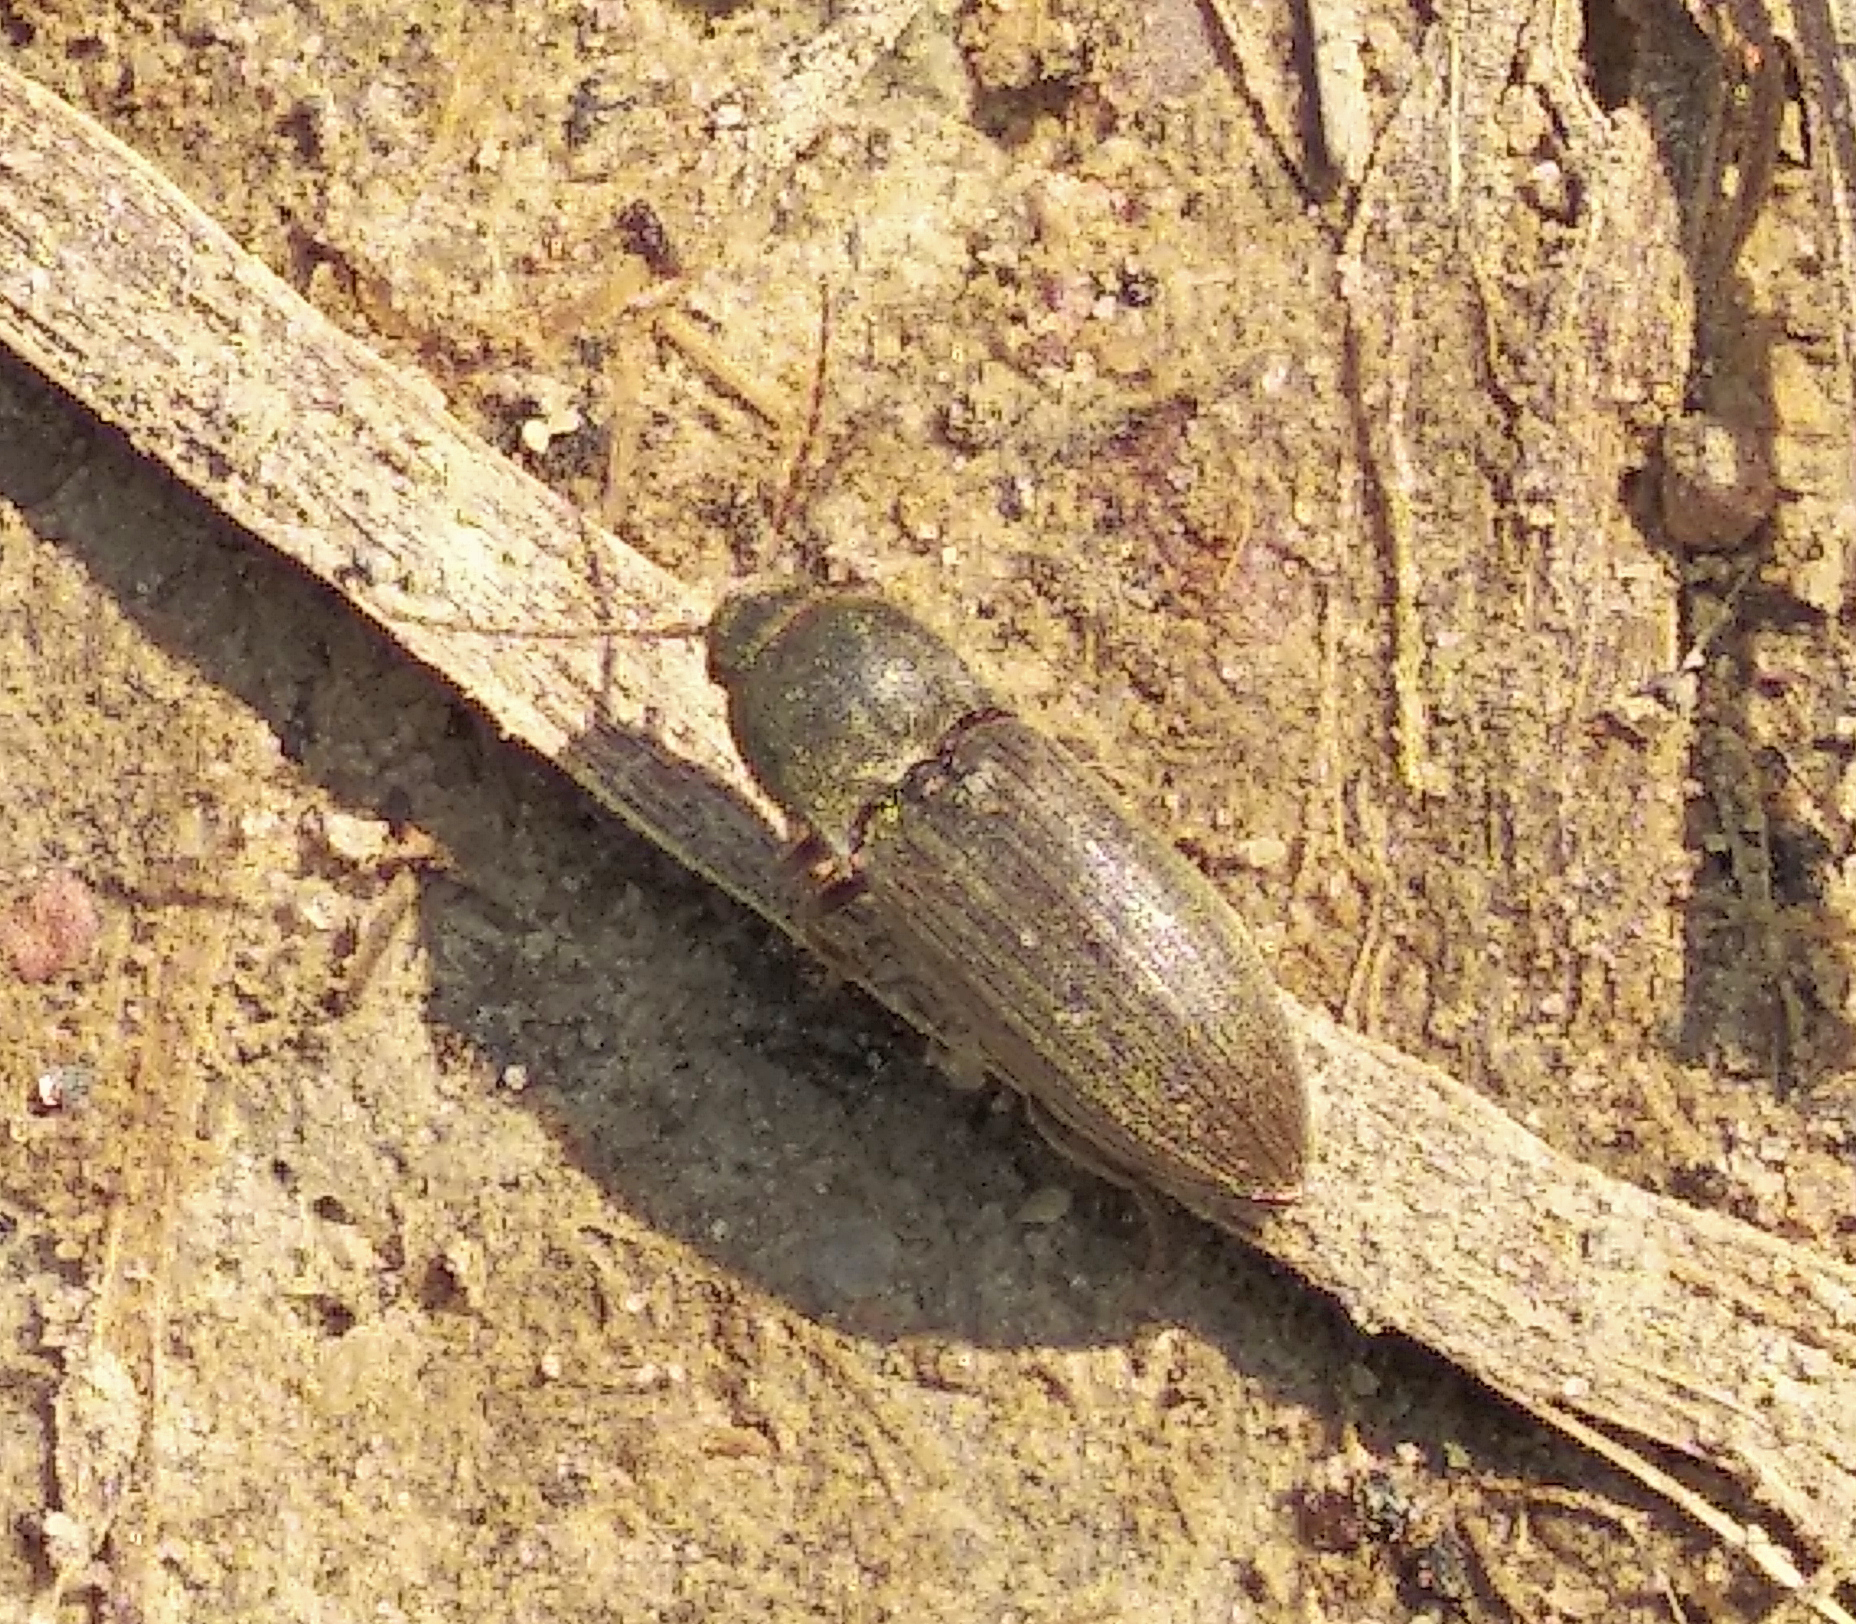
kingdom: Animalia
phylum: Arthropoda
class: Insecta
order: Coleoptera
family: Elateridae
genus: Agriotes
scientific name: Agriotes obscurus
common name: Dusky wireworm
